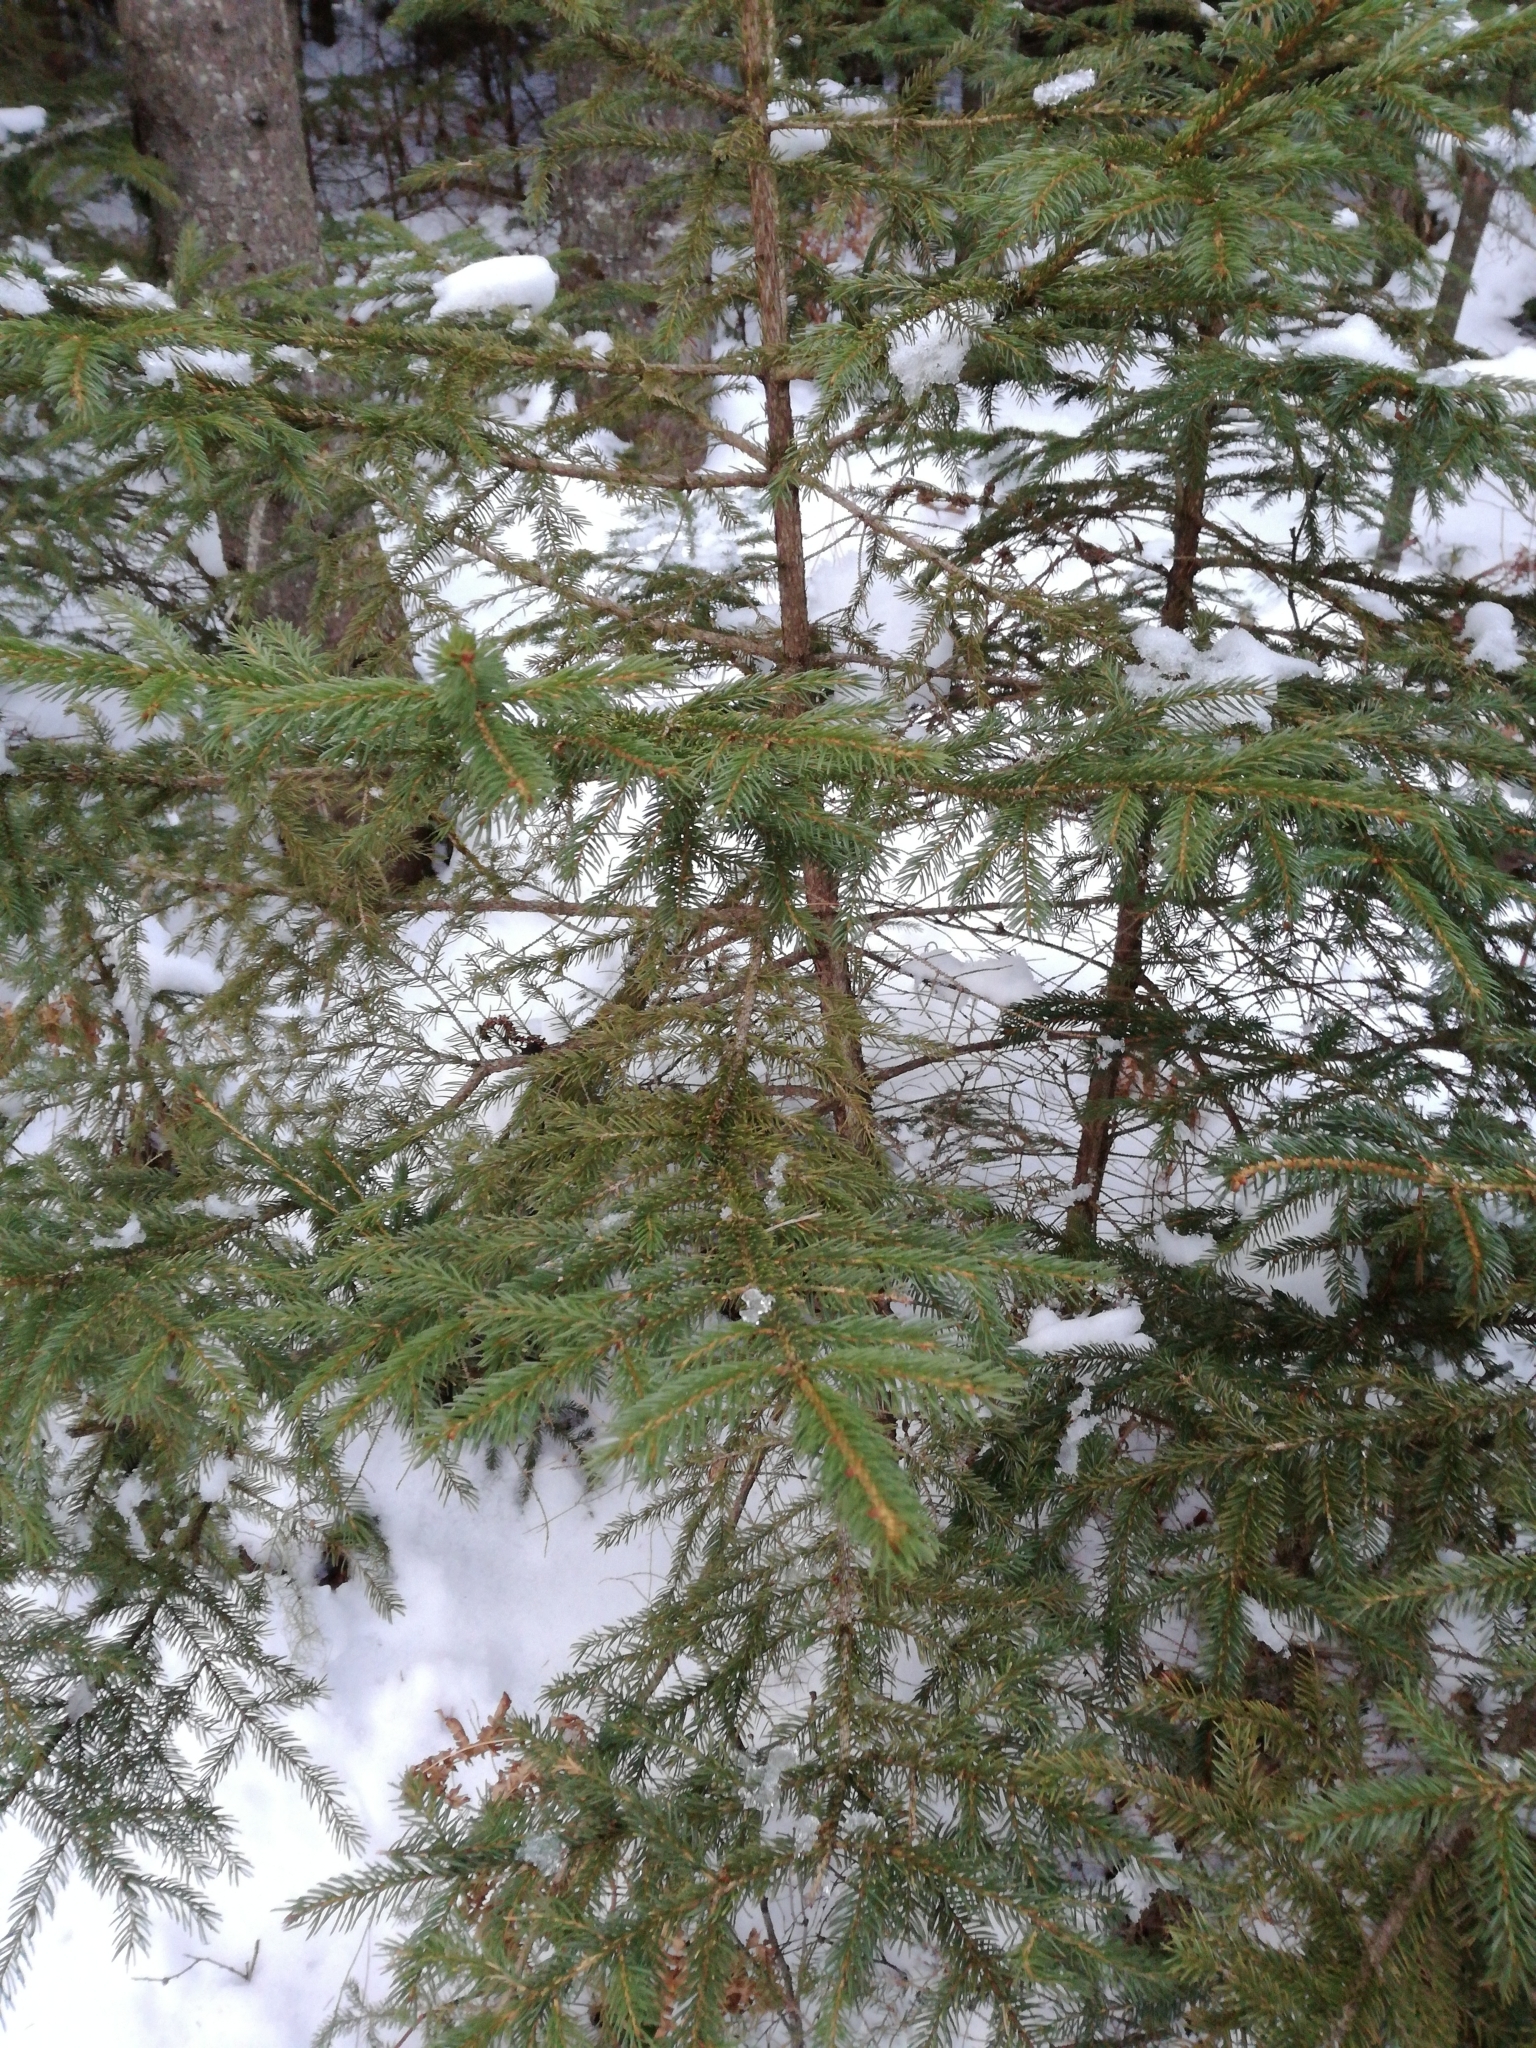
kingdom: Plantae
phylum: Tracheophyta
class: Pinopsida
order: Pinales
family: Pinaceae
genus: Picea
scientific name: Picea rubens
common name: Red spruce
